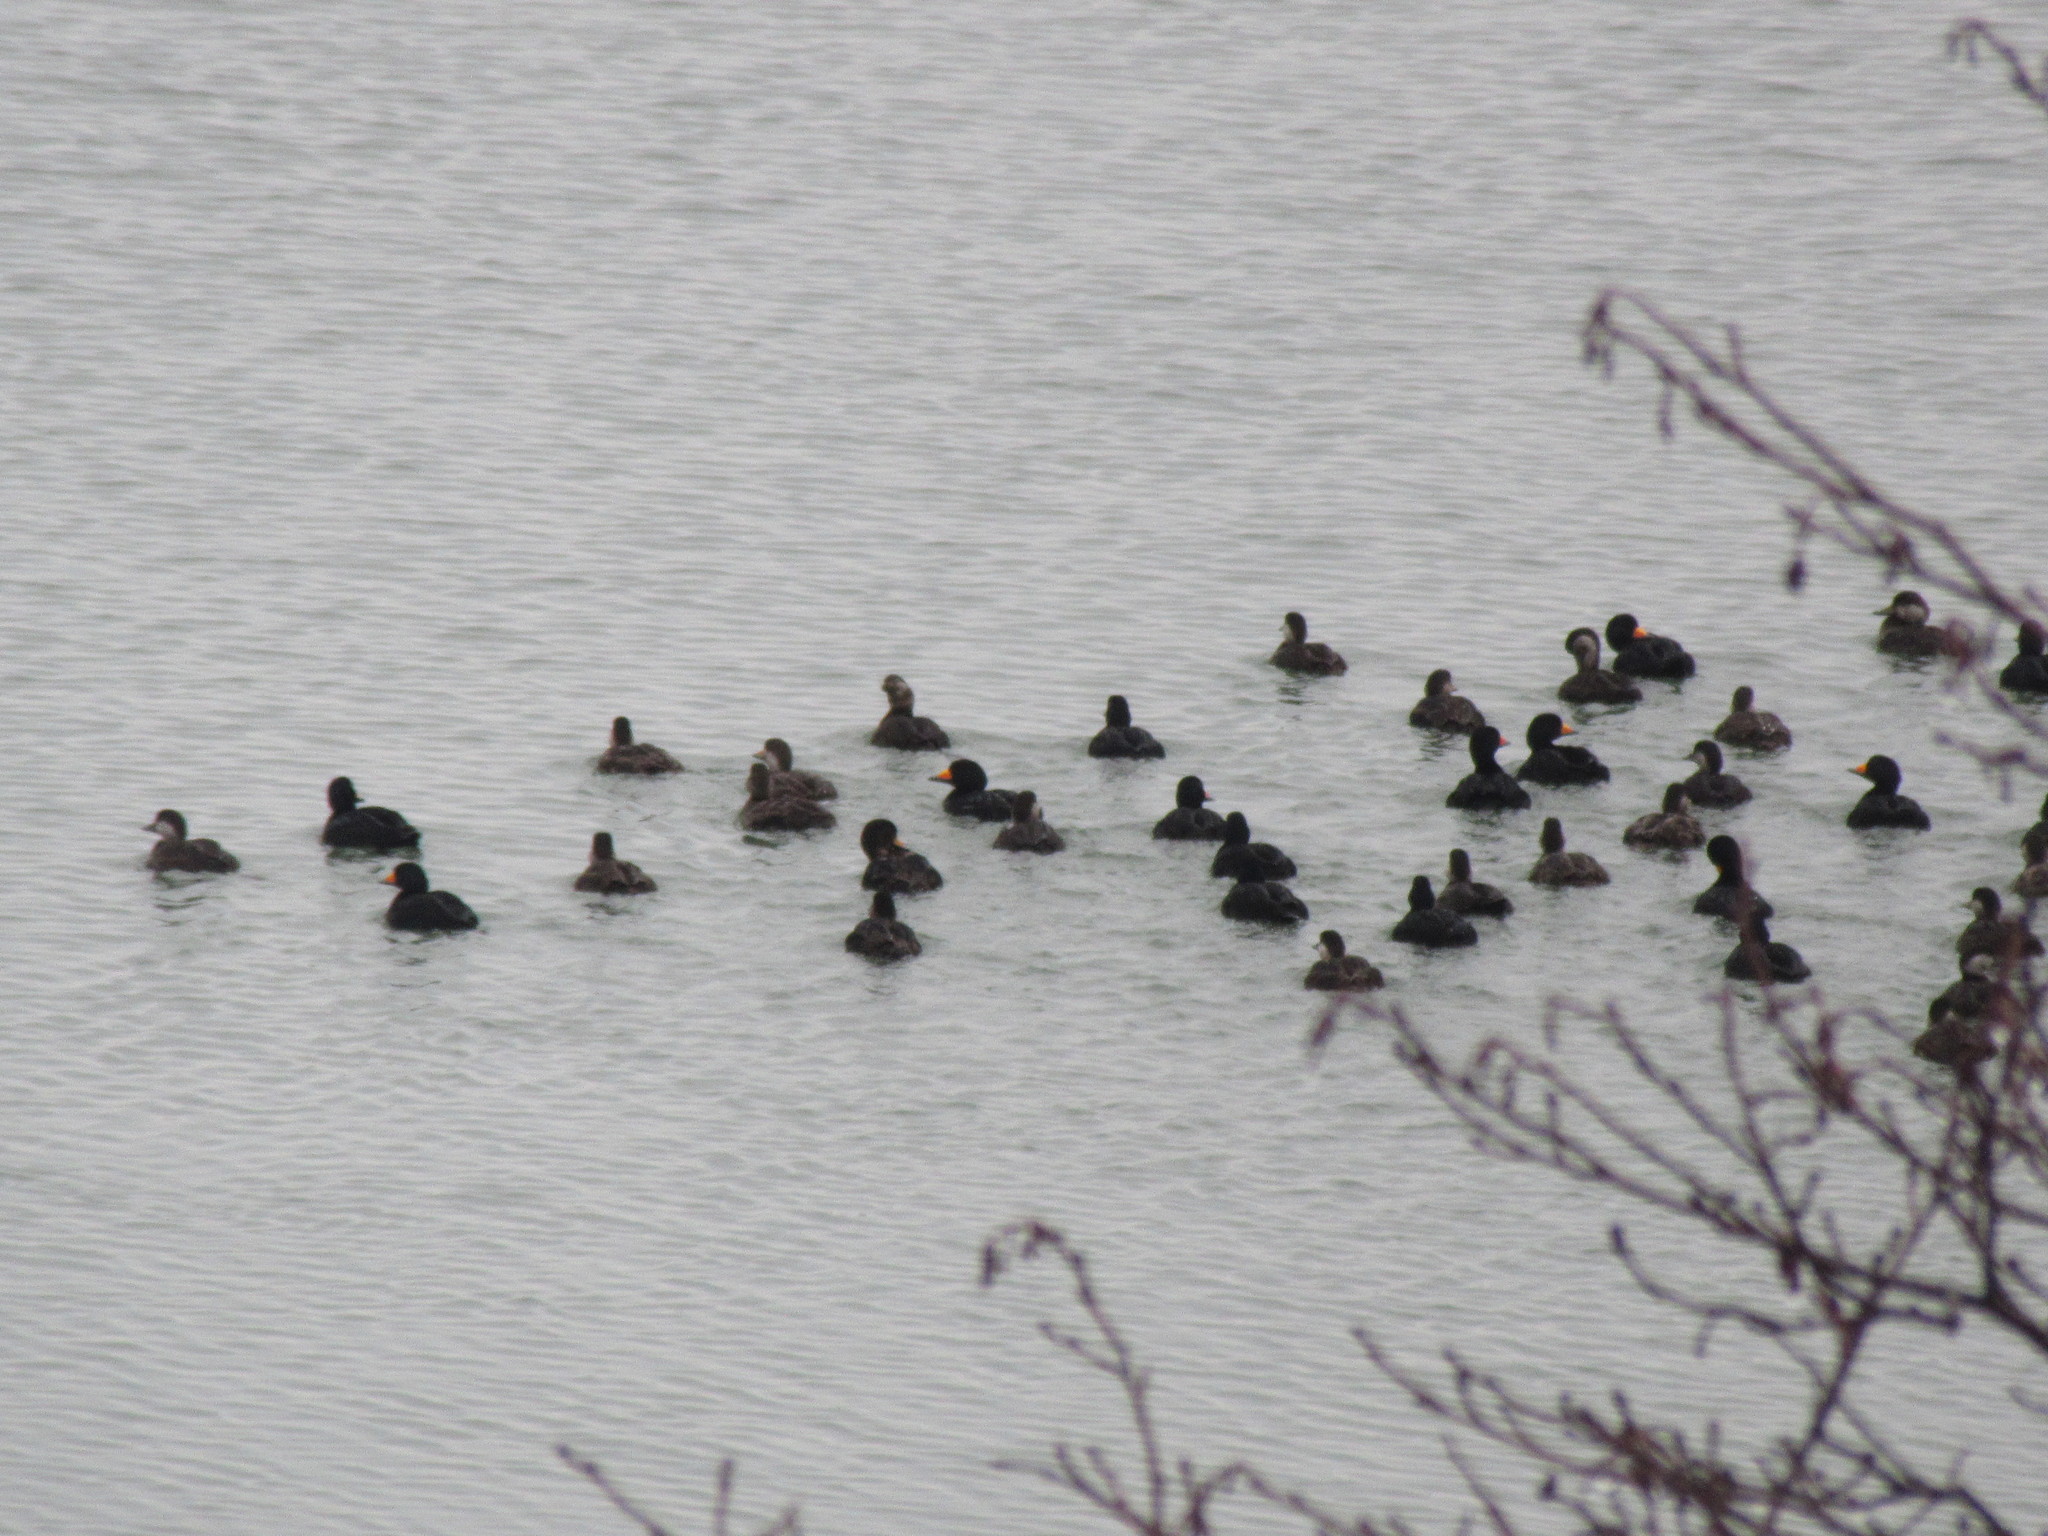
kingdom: Animalia
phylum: Chordata
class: Aves
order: Anseriformes
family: Anatidae
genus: Melanitta
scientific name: Melanitta americana
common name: Black scoter
